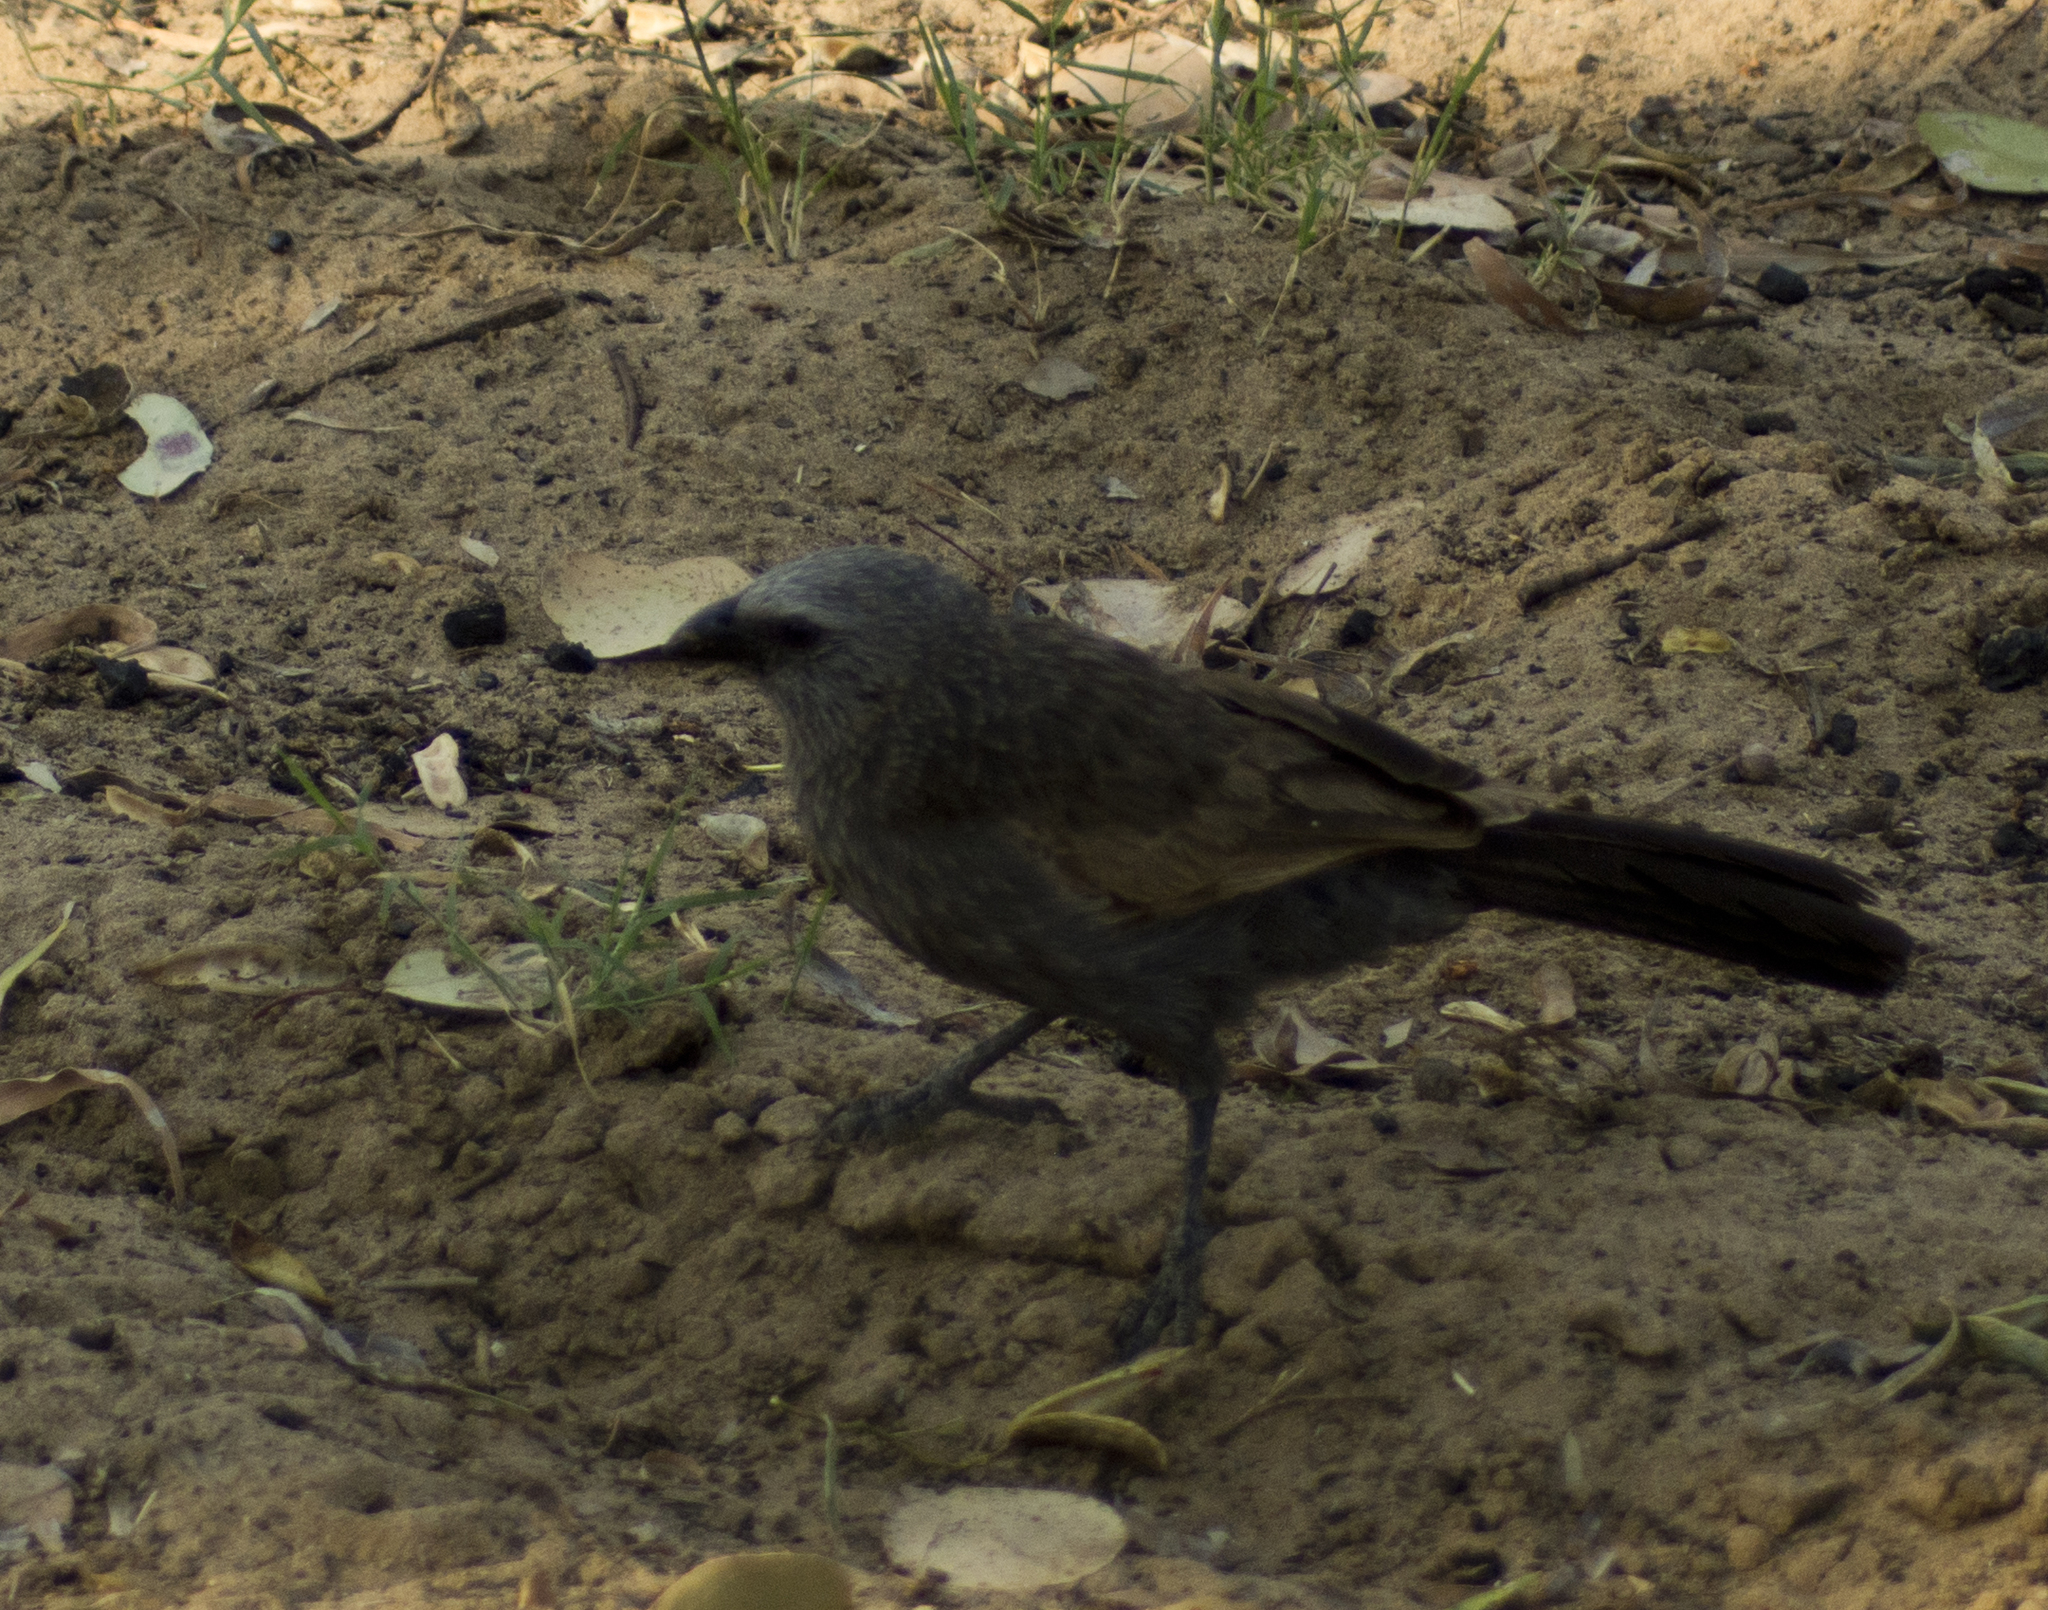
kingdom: Animalia
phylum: Chordata
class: Aves
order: Passeriformes
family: Corcoracidae
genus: Struthidea
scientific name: Struthidea cinerea
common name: Apostlebird
